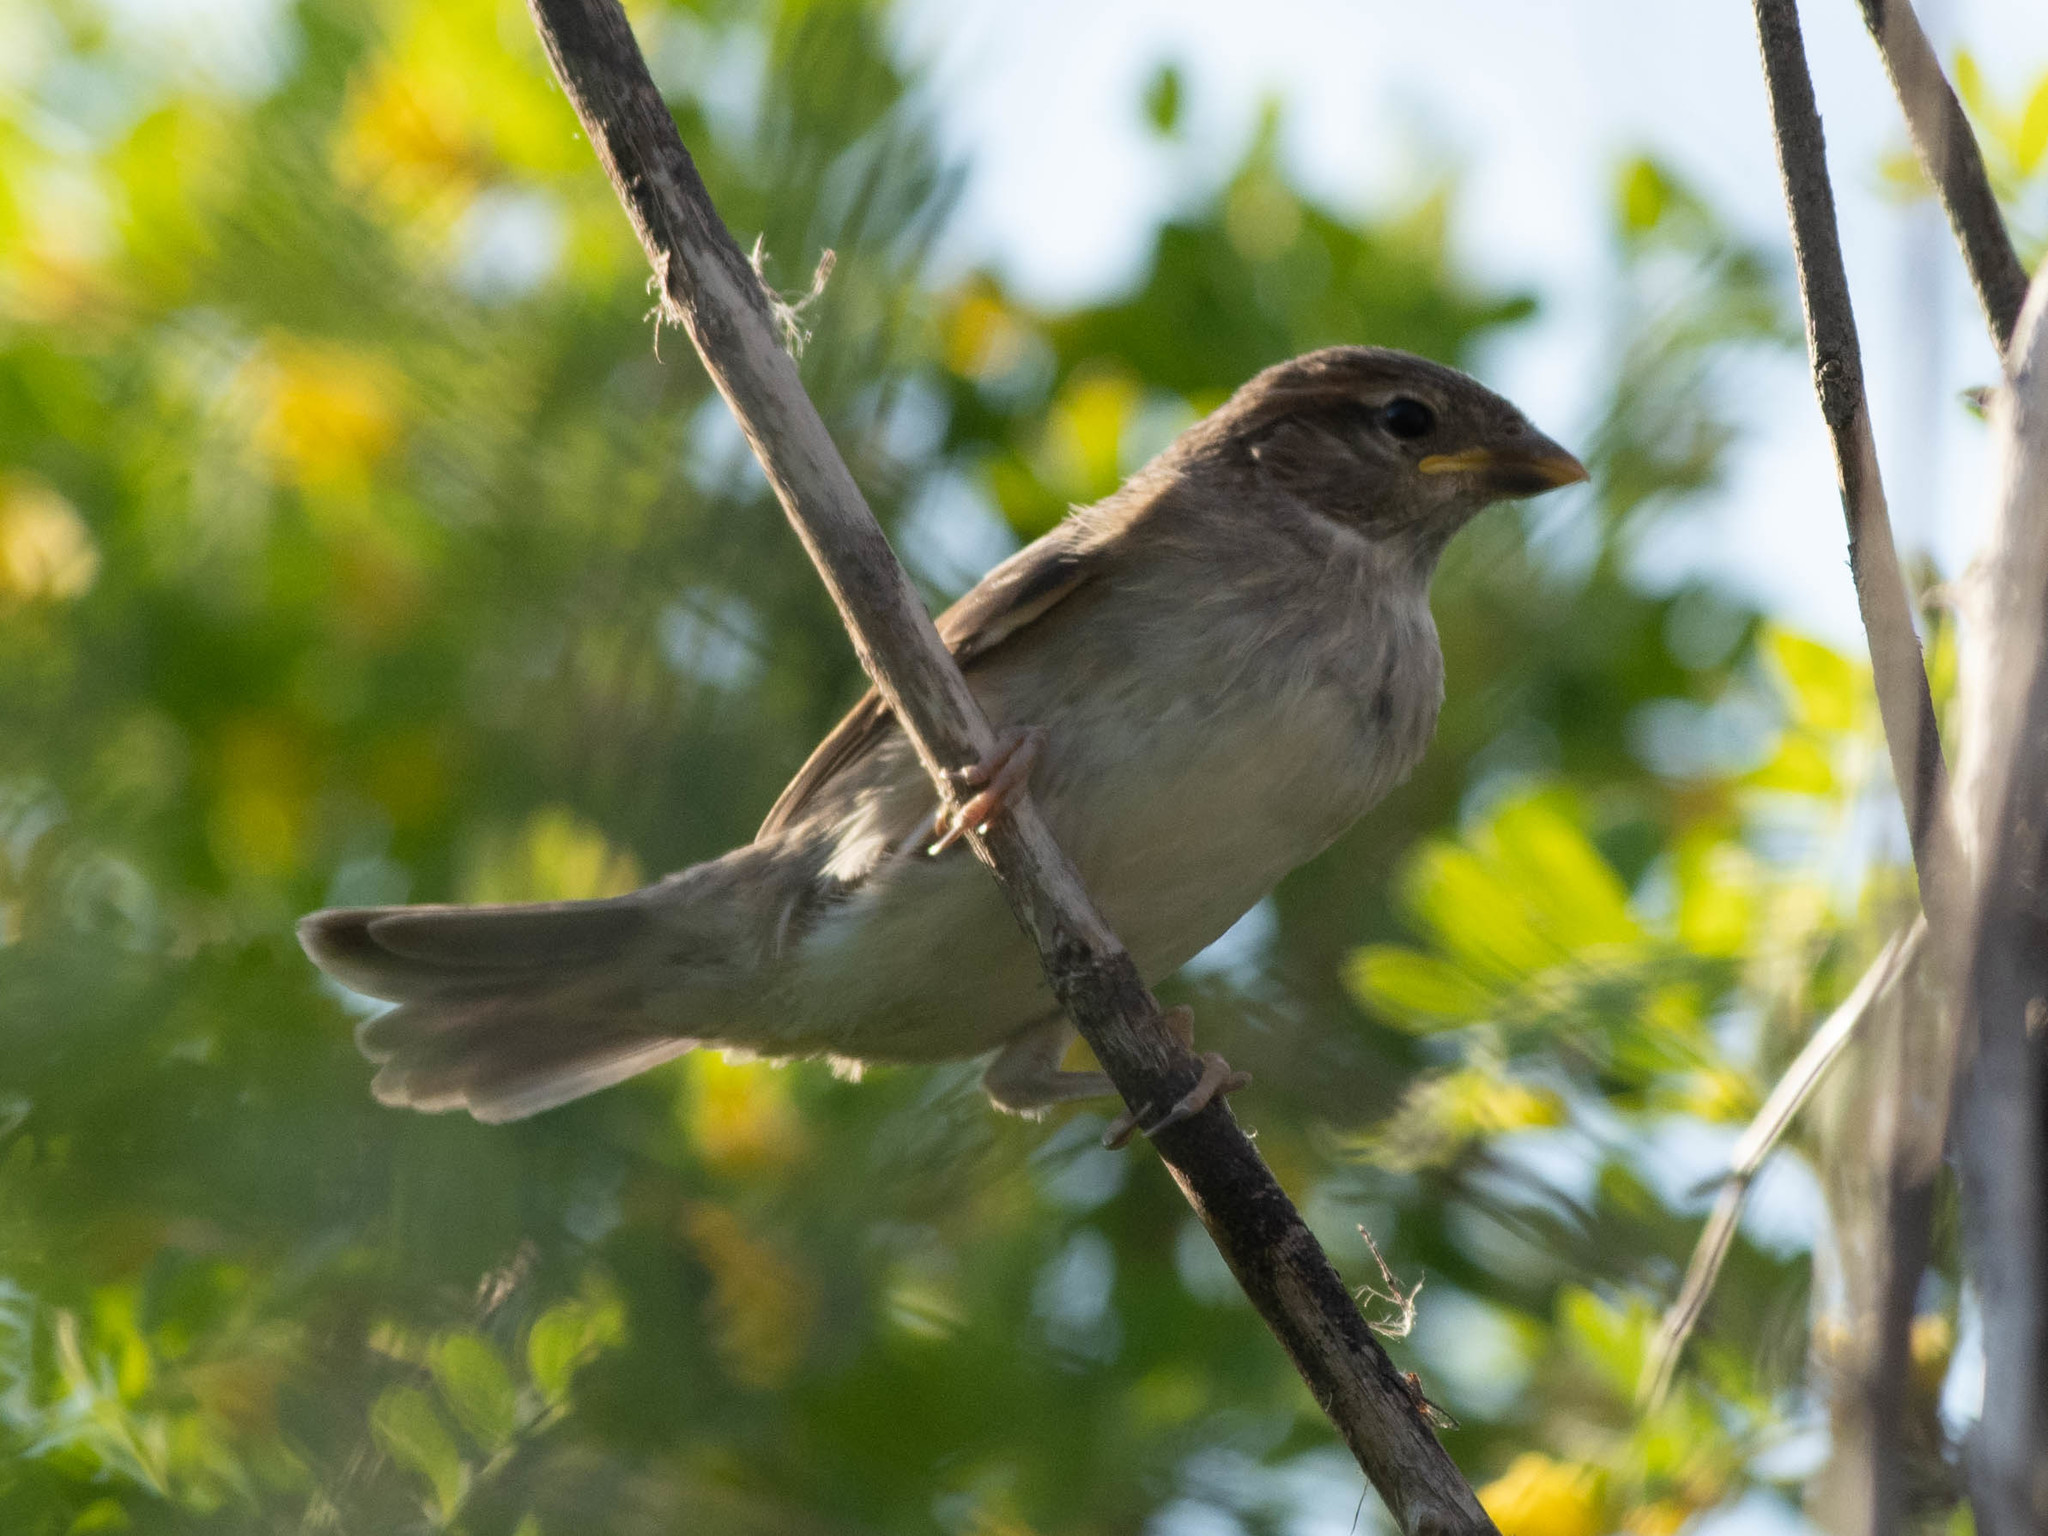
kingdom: Animalia
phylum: Chordata
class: Aves
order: Passeriformes
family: Passeridae
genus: Passer
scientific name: Passer domesticus
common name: House sparrow
